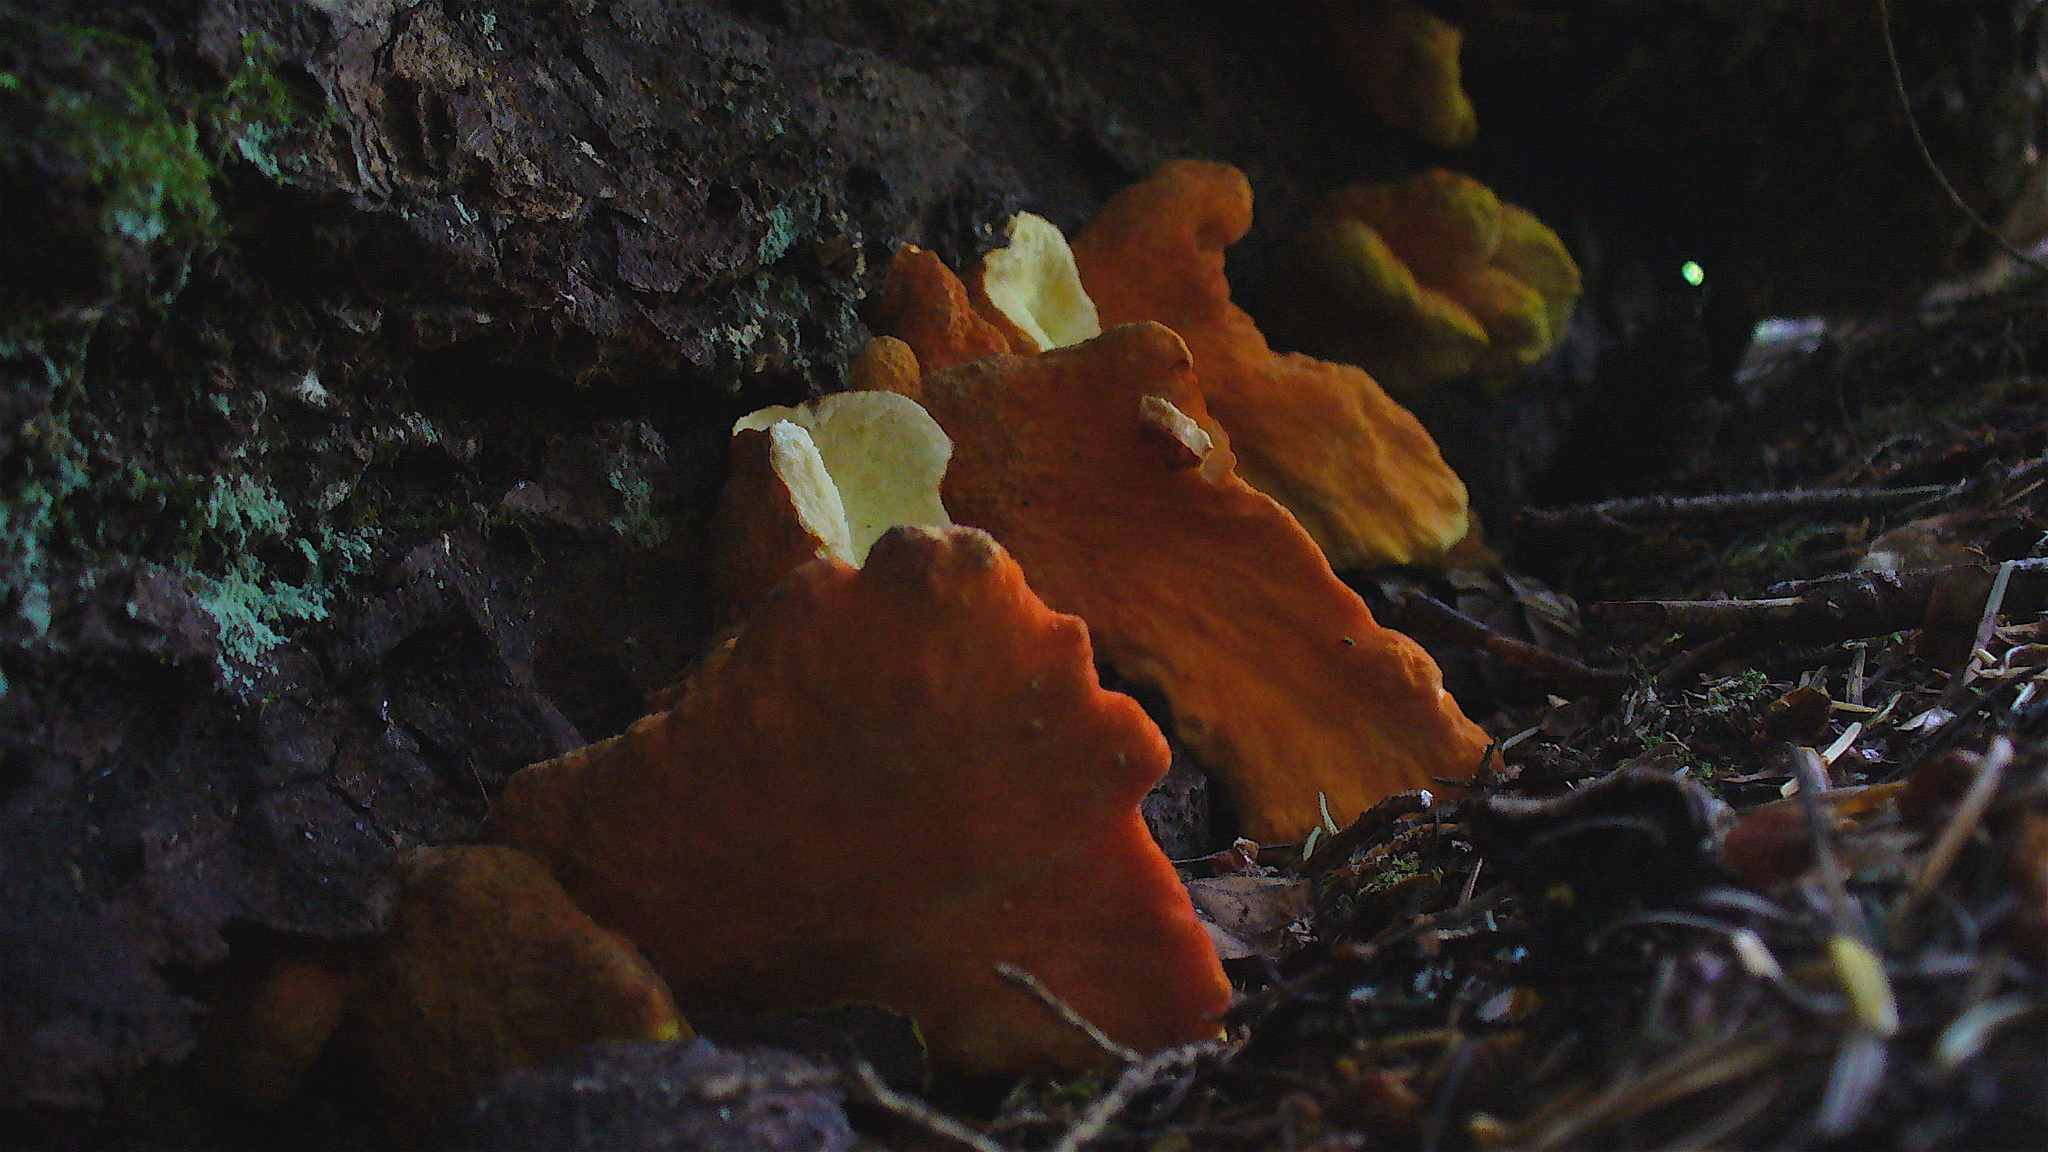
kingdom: Fungi
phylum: Basidiomycota
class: Agaricomycetes
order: Polyporales
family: Laetiporaceae
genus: Laetiporus
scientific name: Laetiporus conifericola
